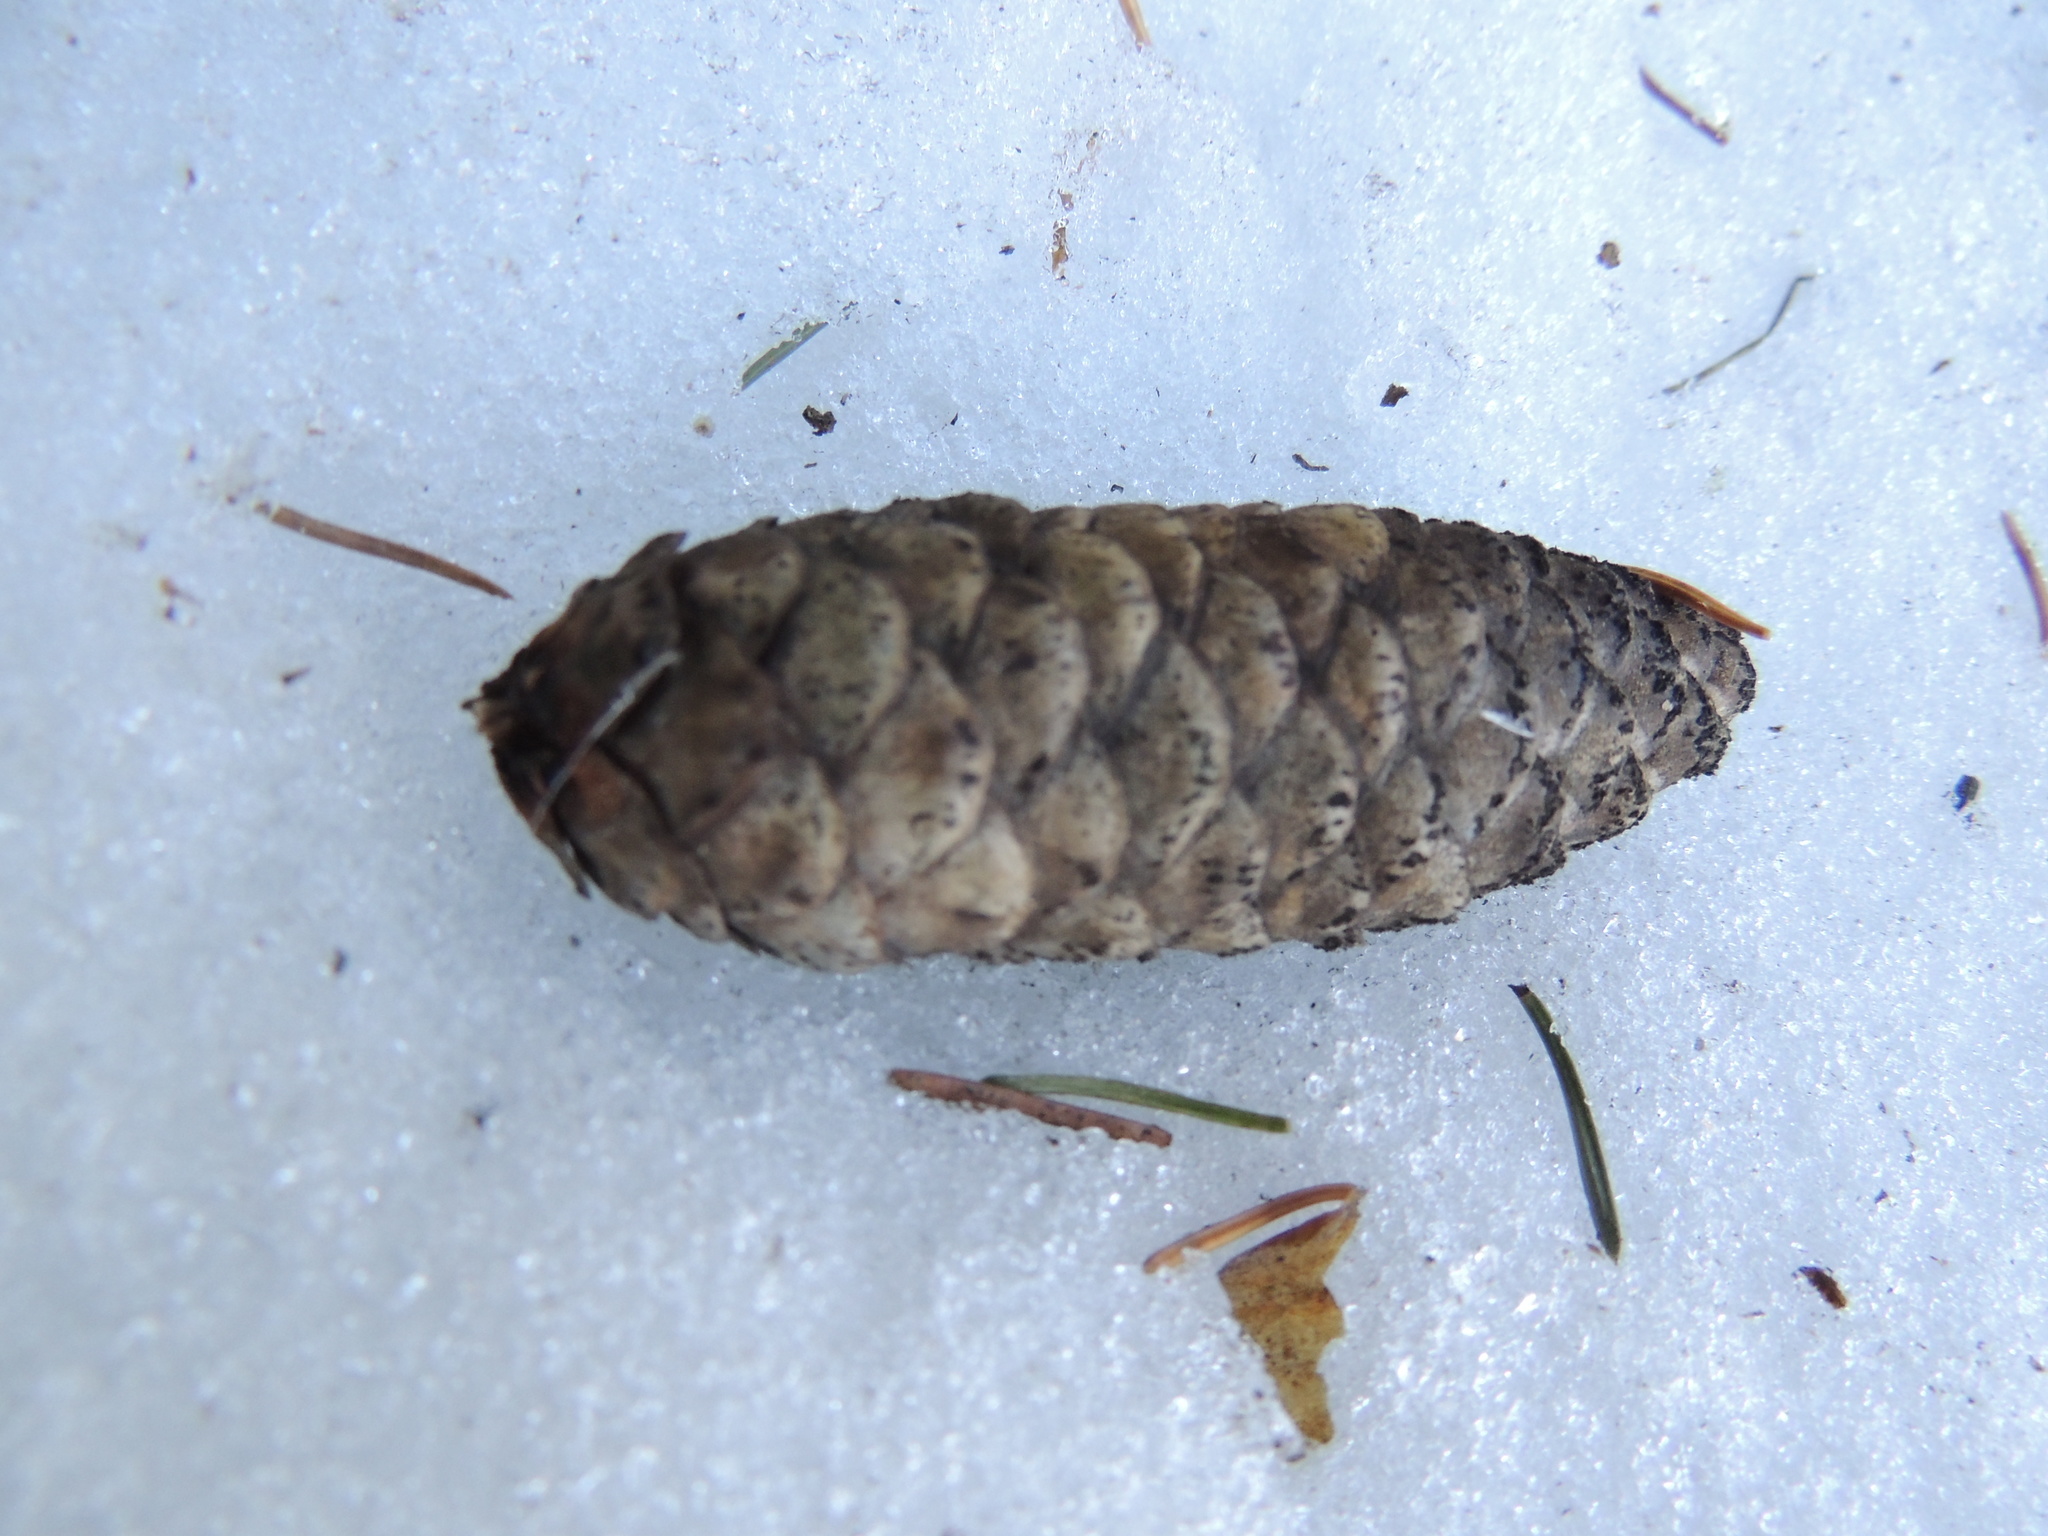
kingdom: Plantae
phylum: Tracheophyta
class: Pinopsida
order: Pinales
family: Pinaceae
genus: Picea
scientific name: Picea obovata
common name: Siberian spruce
